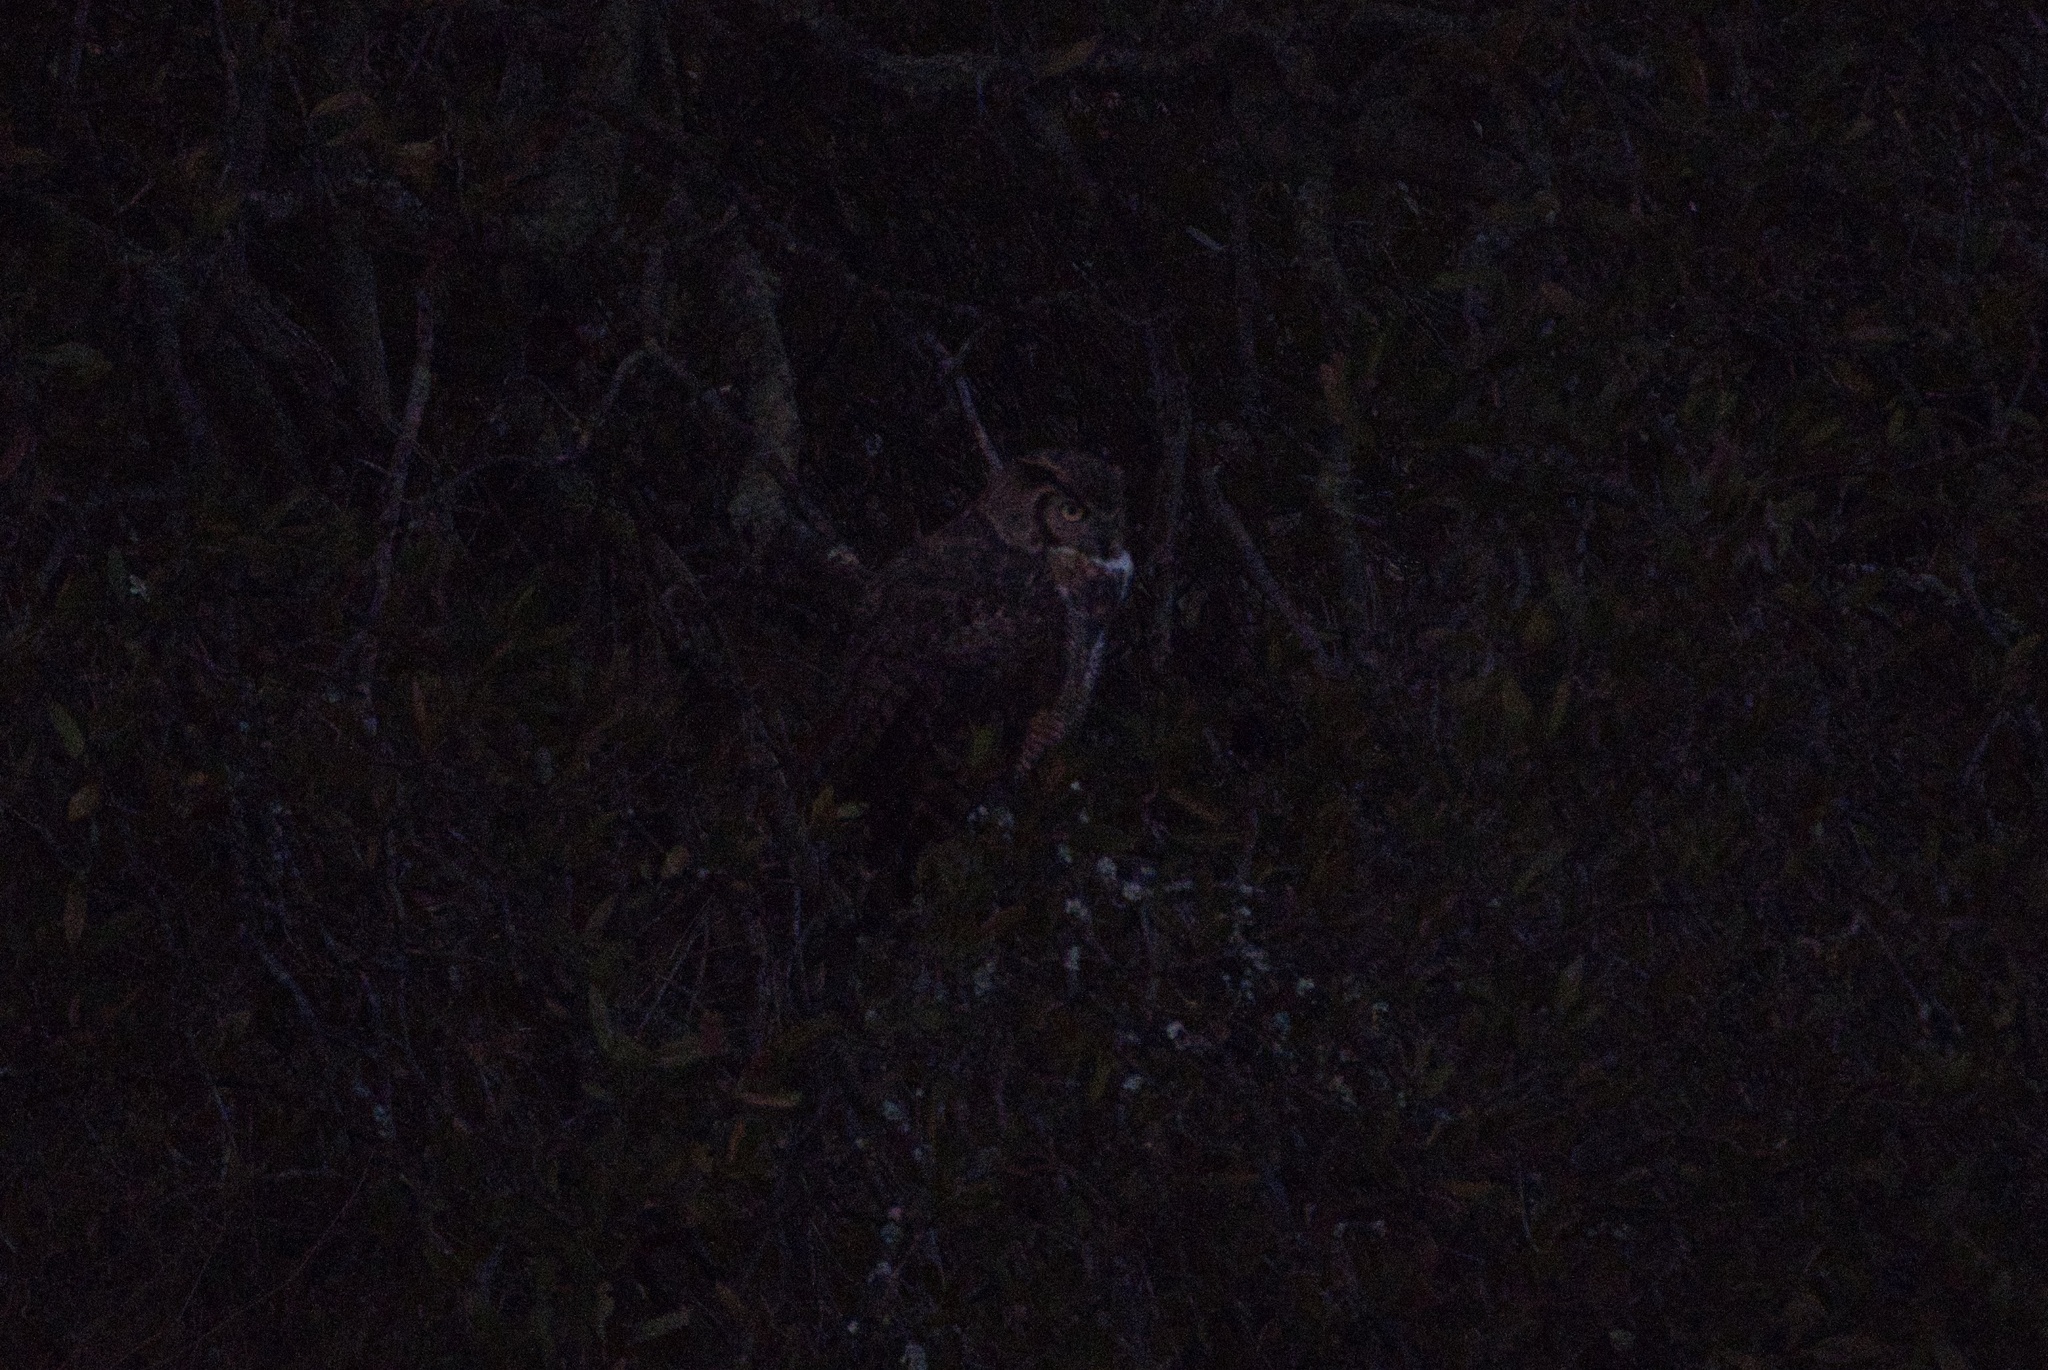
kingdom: Animalia
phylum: Chordata
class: Aves
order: Strigiformes
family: Strigidae
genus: Bubo
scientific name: Bubo virginianus
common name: Great horned owl
